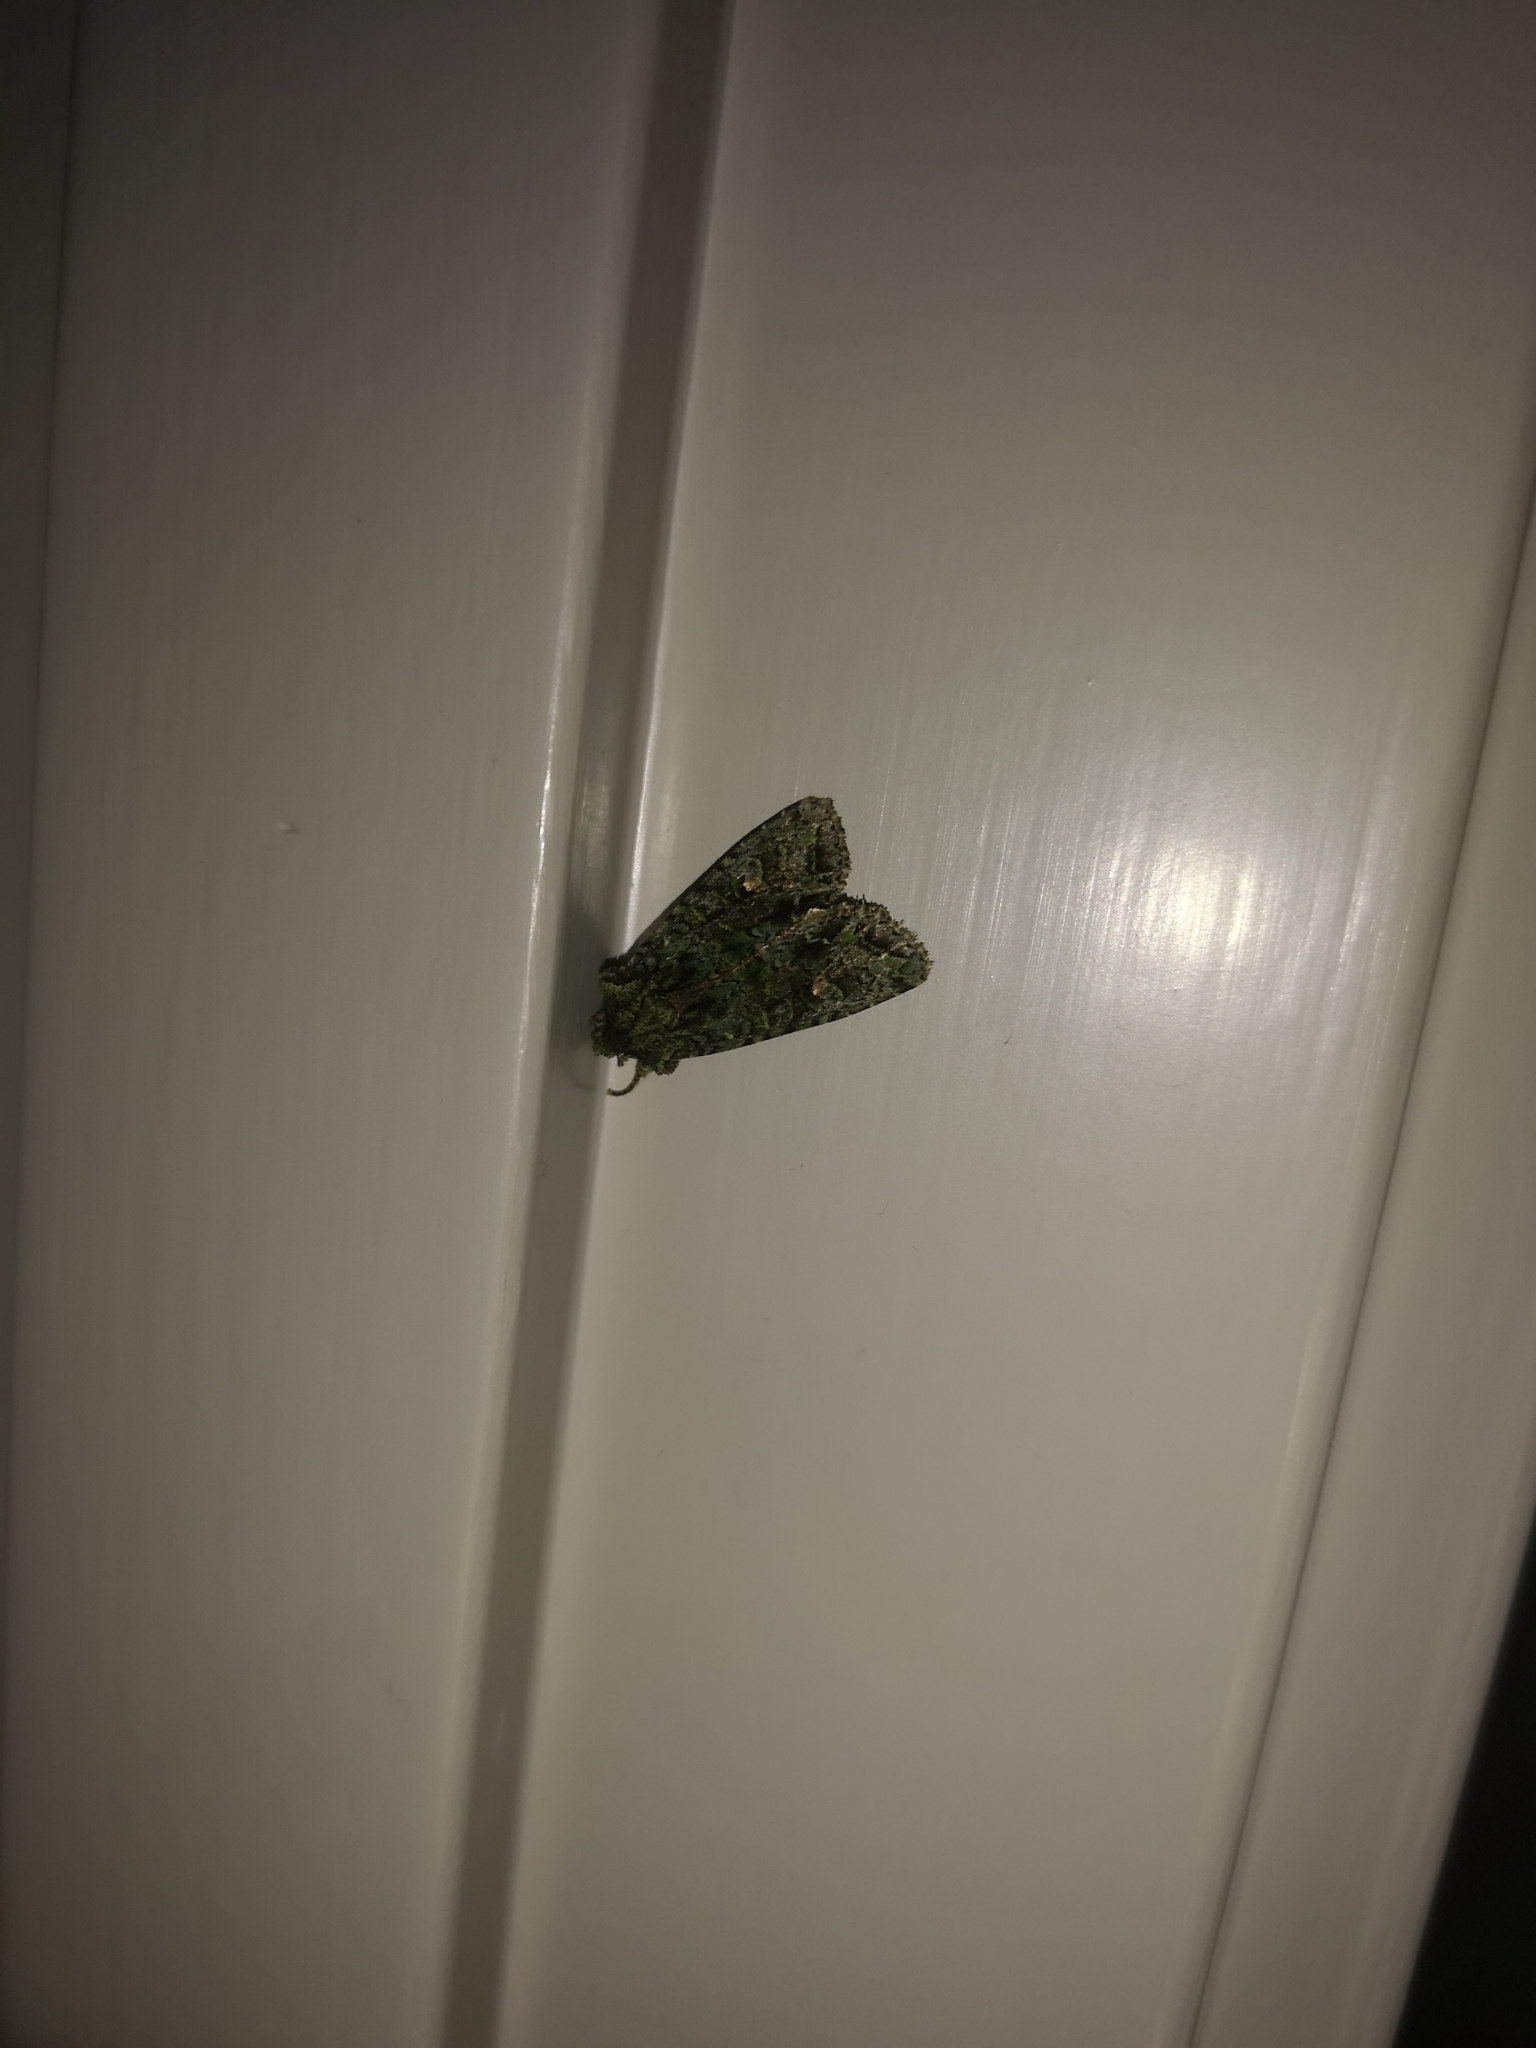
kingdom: Animalia
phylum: Arthropoda
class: Insecta
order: Lepidoptera
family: Noctuidae
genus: Ichneutica
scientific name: Ichneutica
